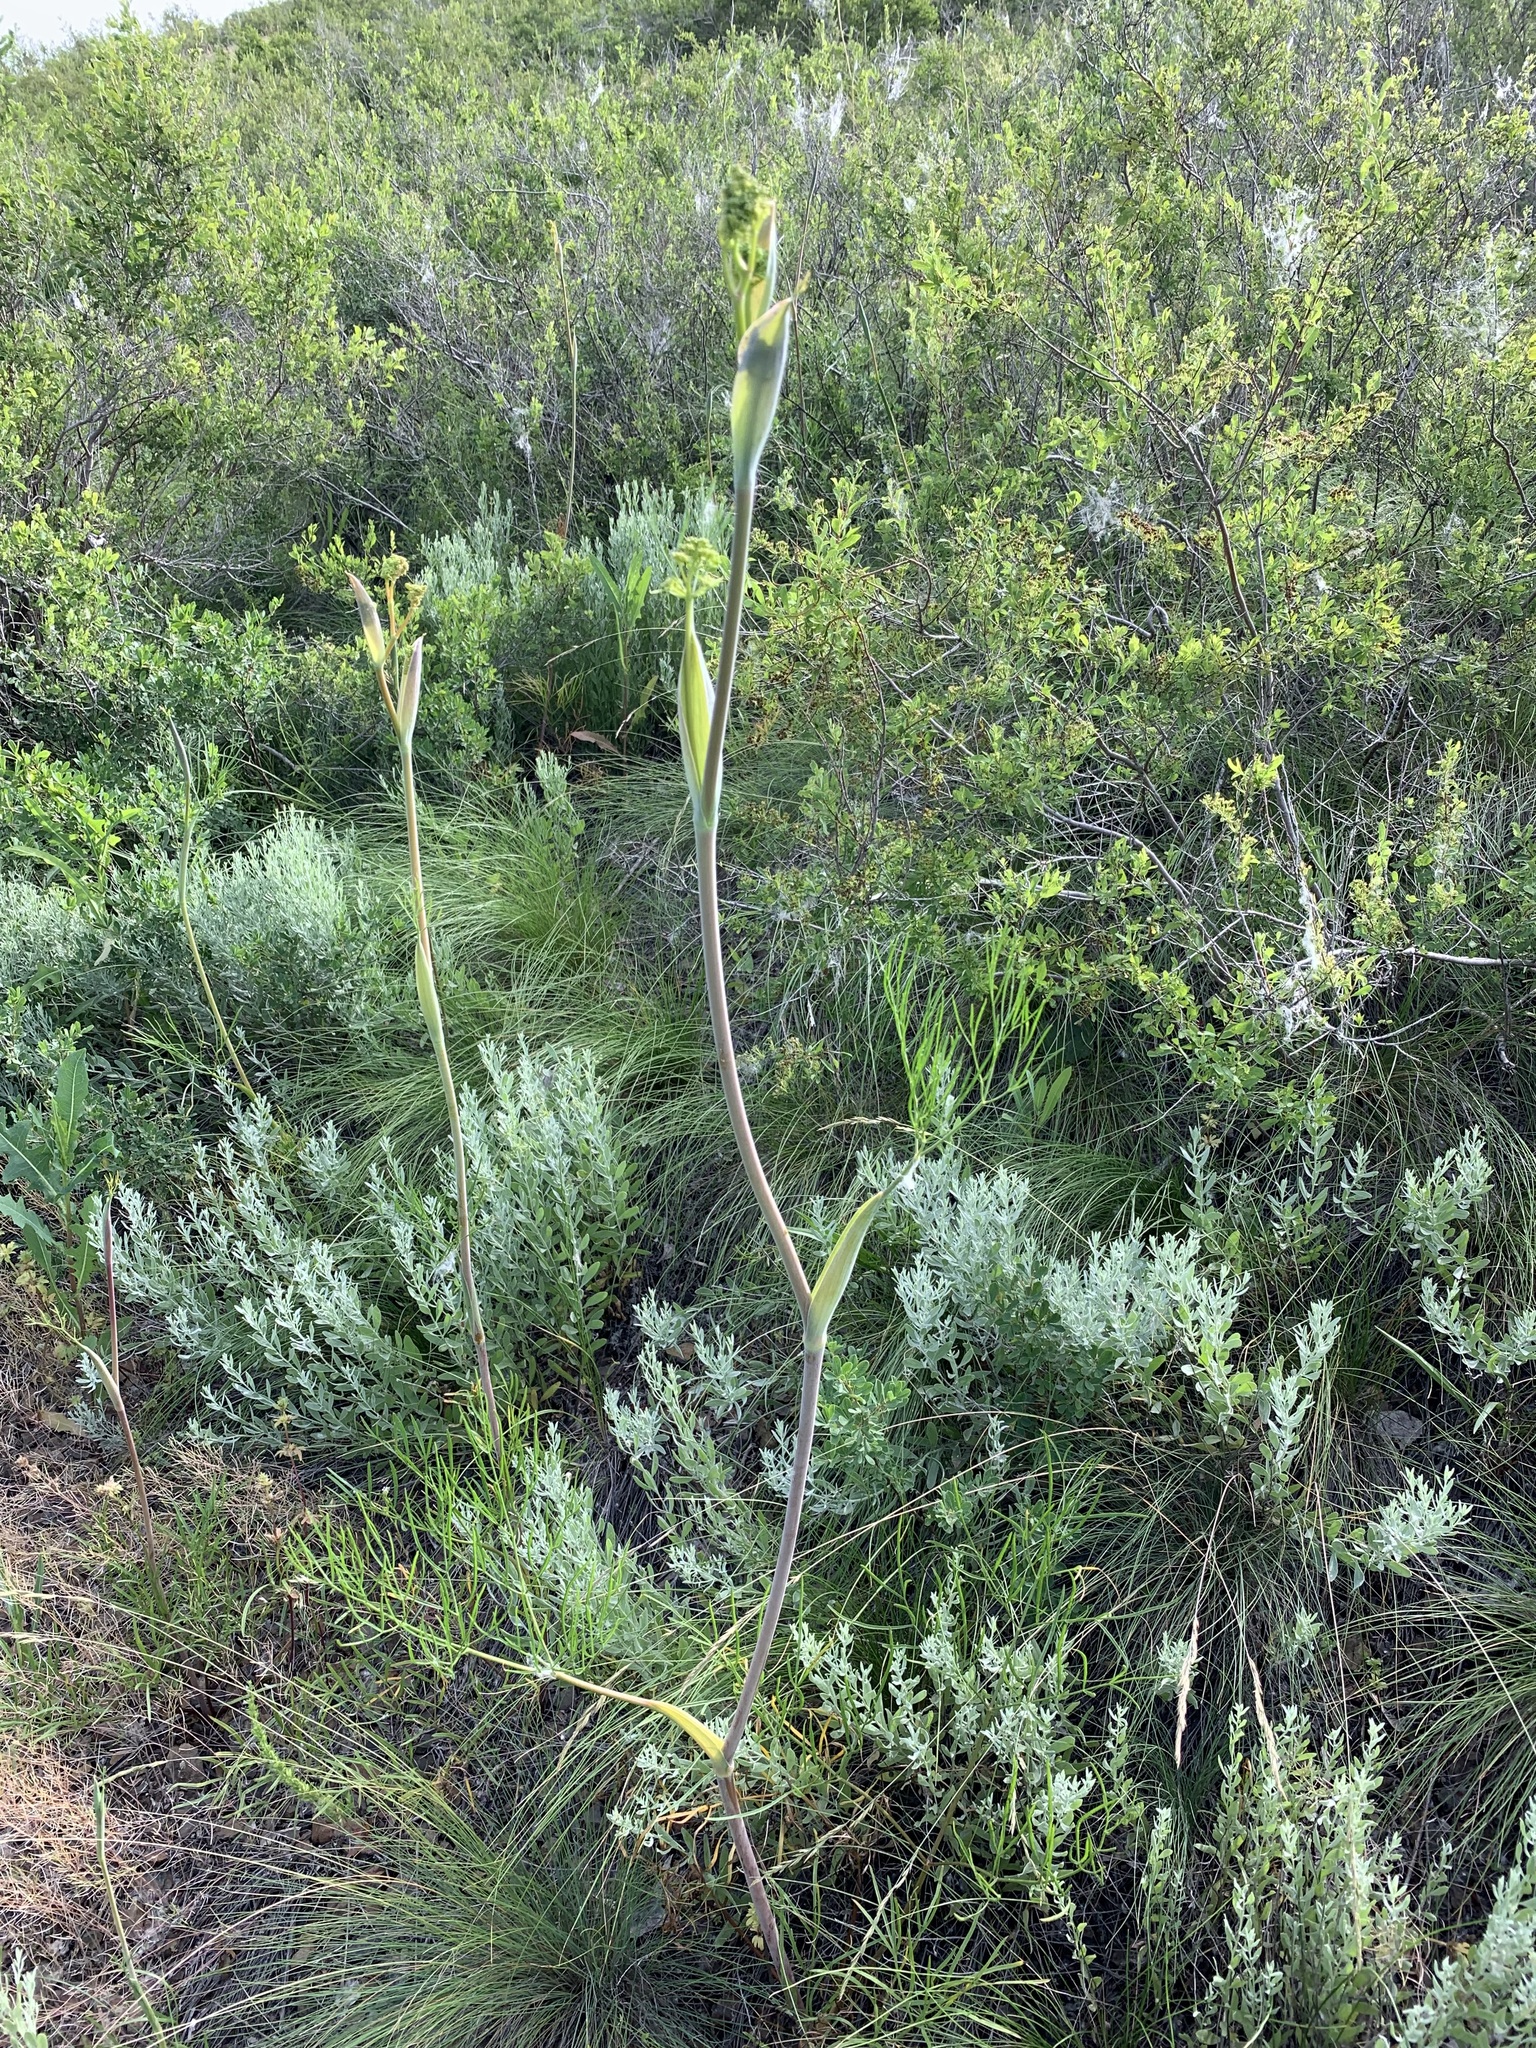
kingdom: Plantae
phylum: Tracheophyta
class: Magnoliopsida
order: Apiales
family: Apiaceae
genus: Ferula
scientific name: Ferula tatarica
